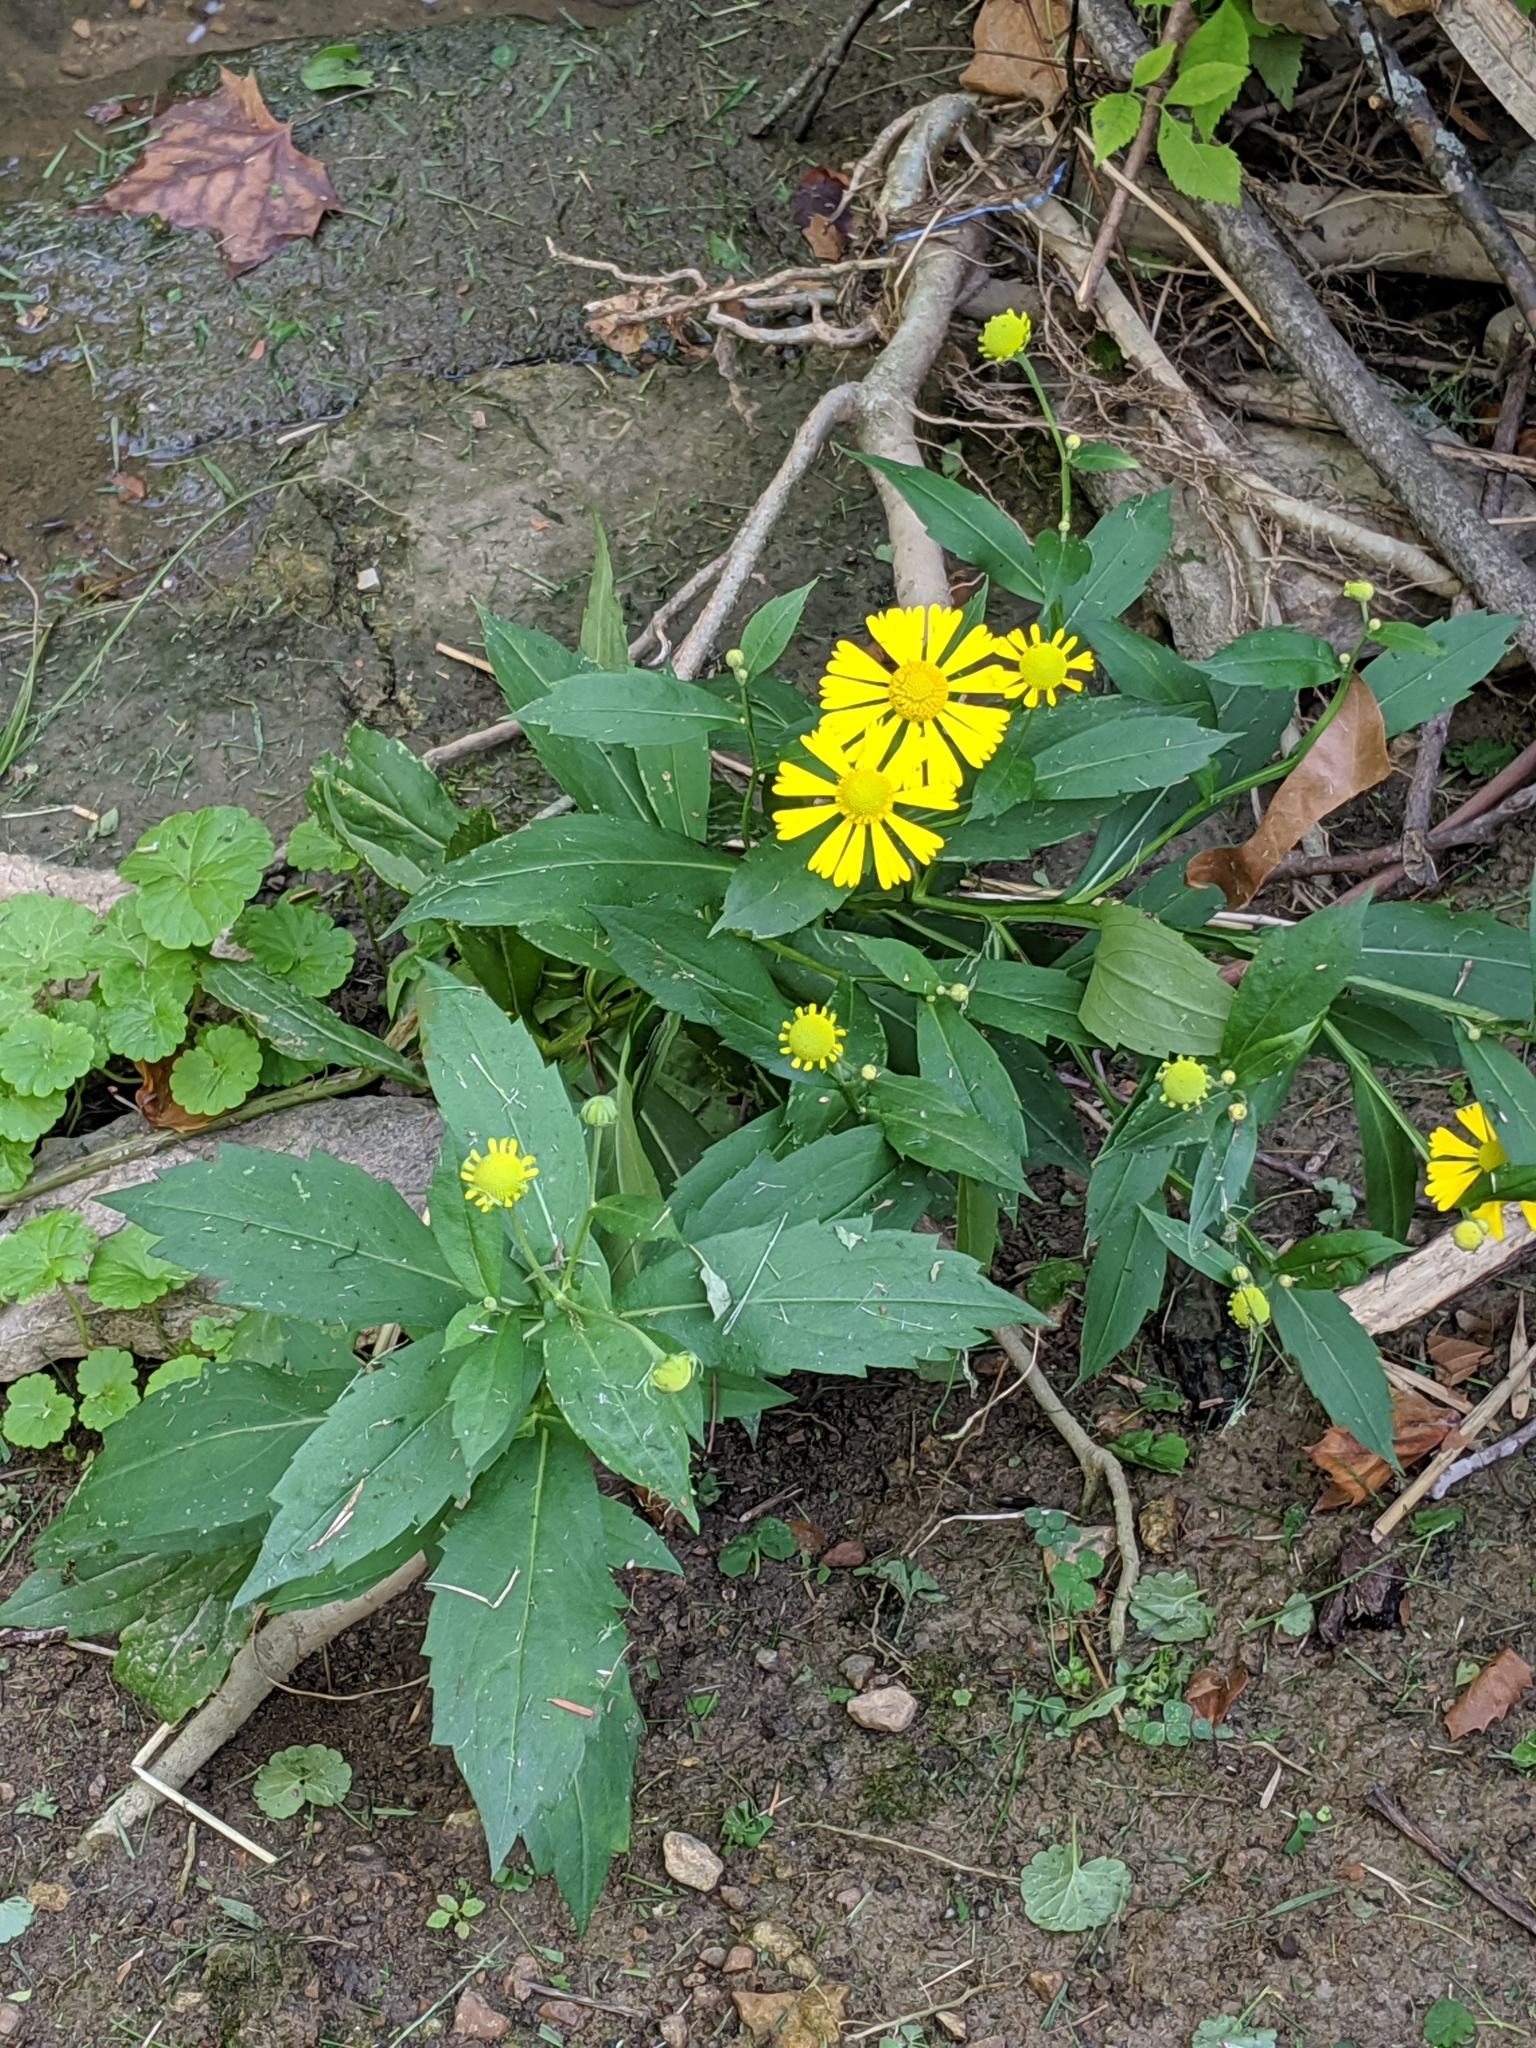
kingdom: Plantae
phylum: Tracheophyta
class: Magnoliopsida
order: Asterales
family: Asteraceae
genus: Helenium
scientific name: Helenium autumnale
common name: Sneezeweed
